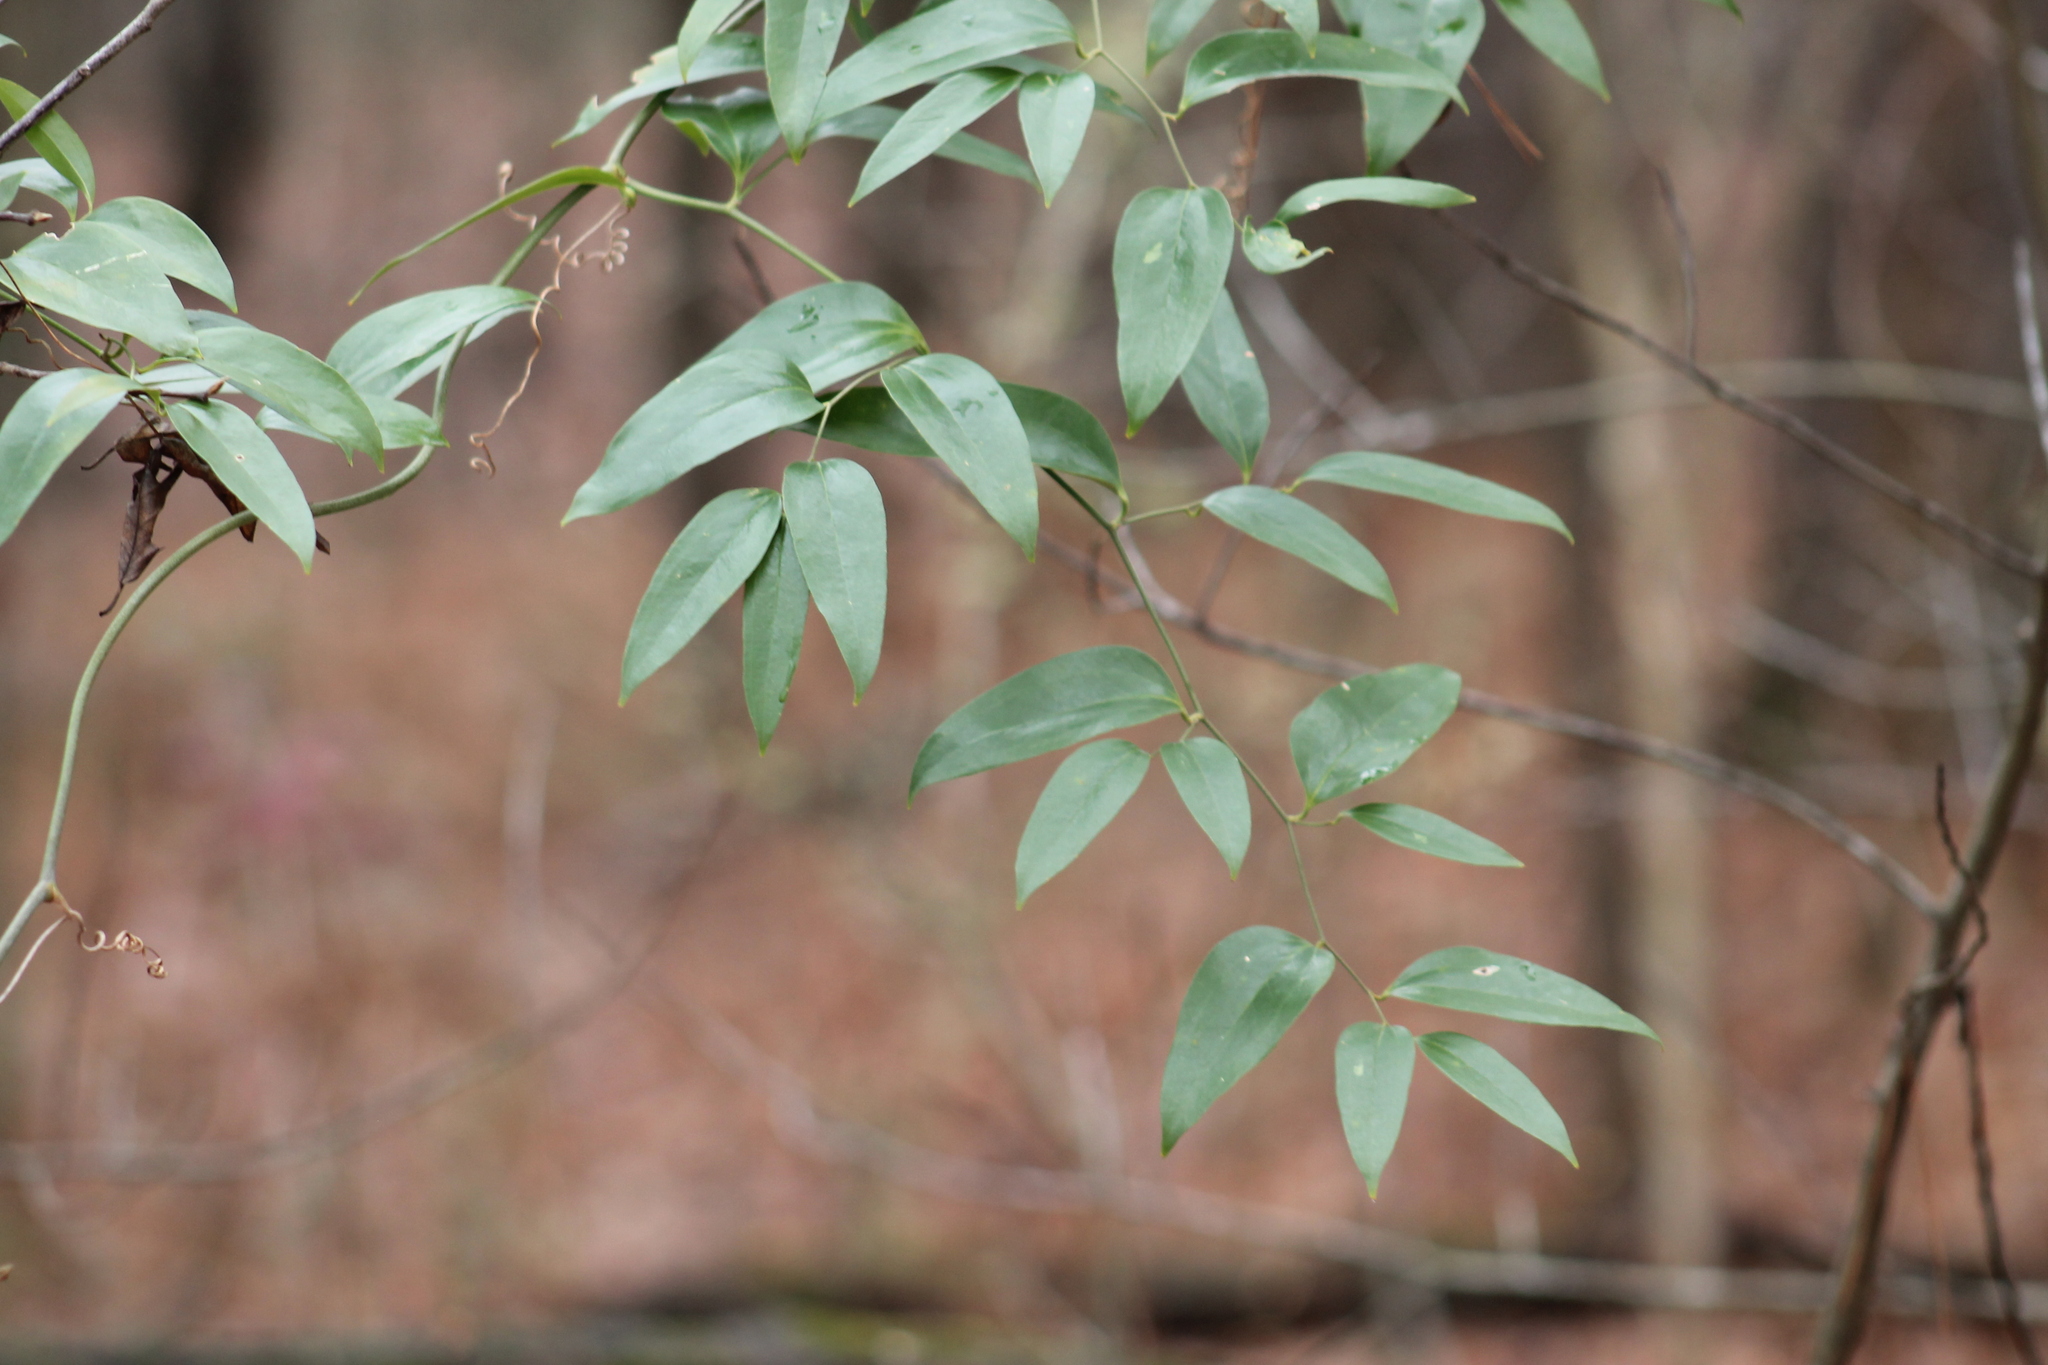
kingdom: Plantae
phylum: Tracheophyta
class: Liliopsida
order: Liliales
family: Smilacaceae
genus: Smilax
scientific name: Smilax maritima
